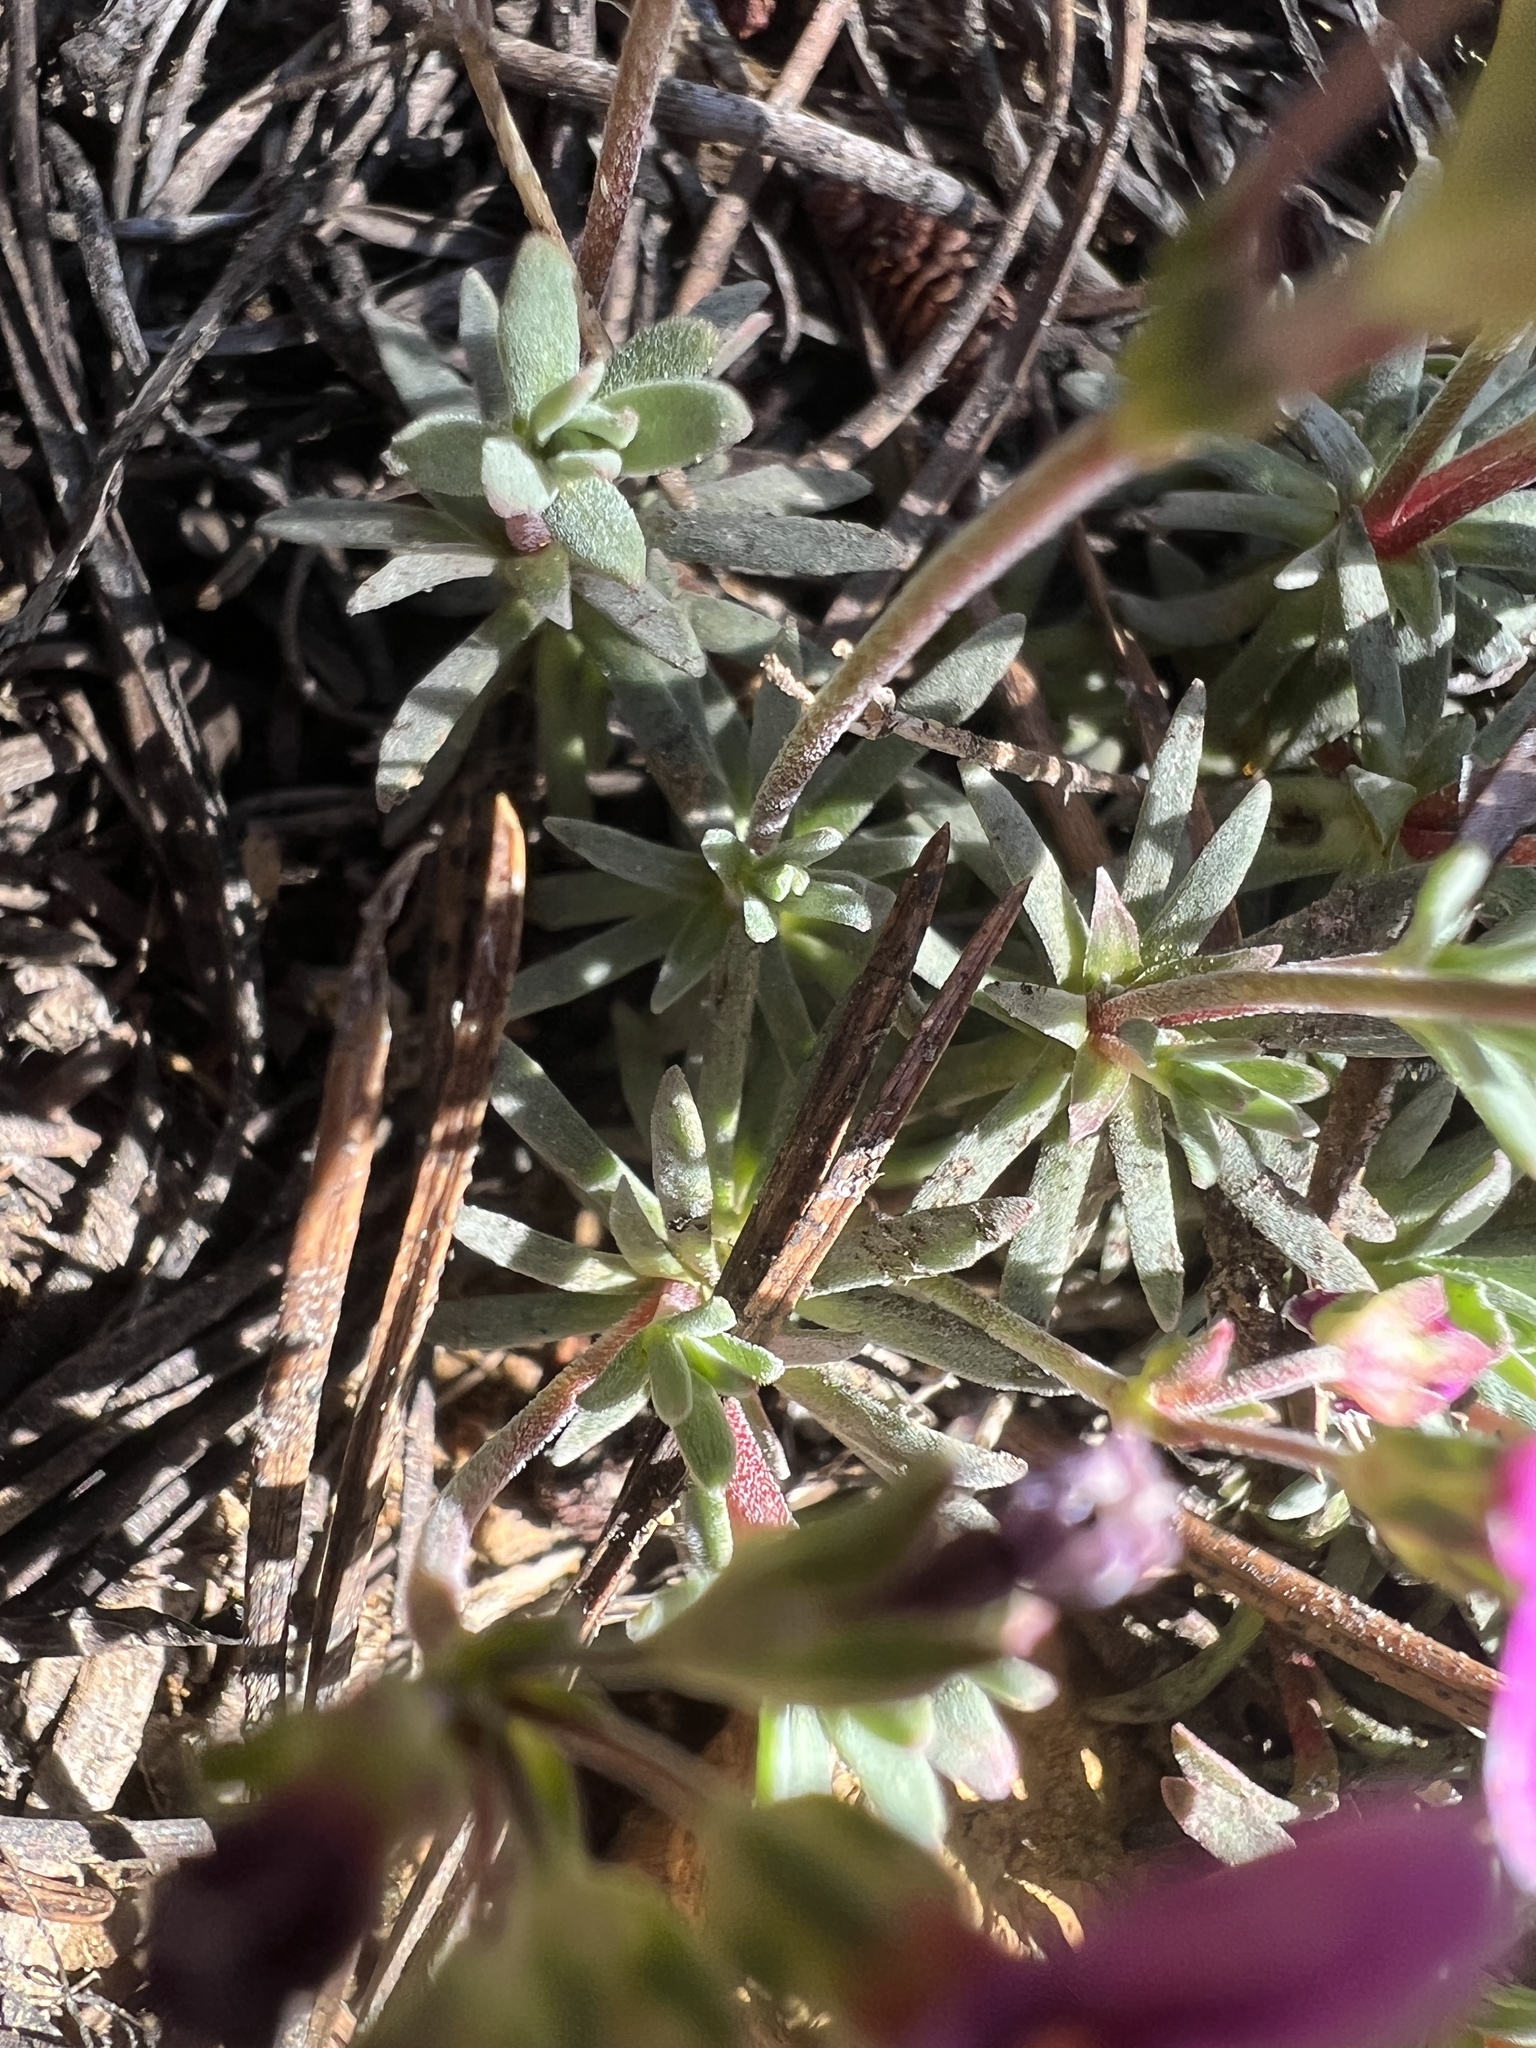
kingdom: Plantae
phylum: Tracheophyta
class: Magnoliopsida
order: Ericales
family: Primulaceae
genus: Androsace
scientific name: Androsace nivalis
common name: Snow dwarf-primrose
